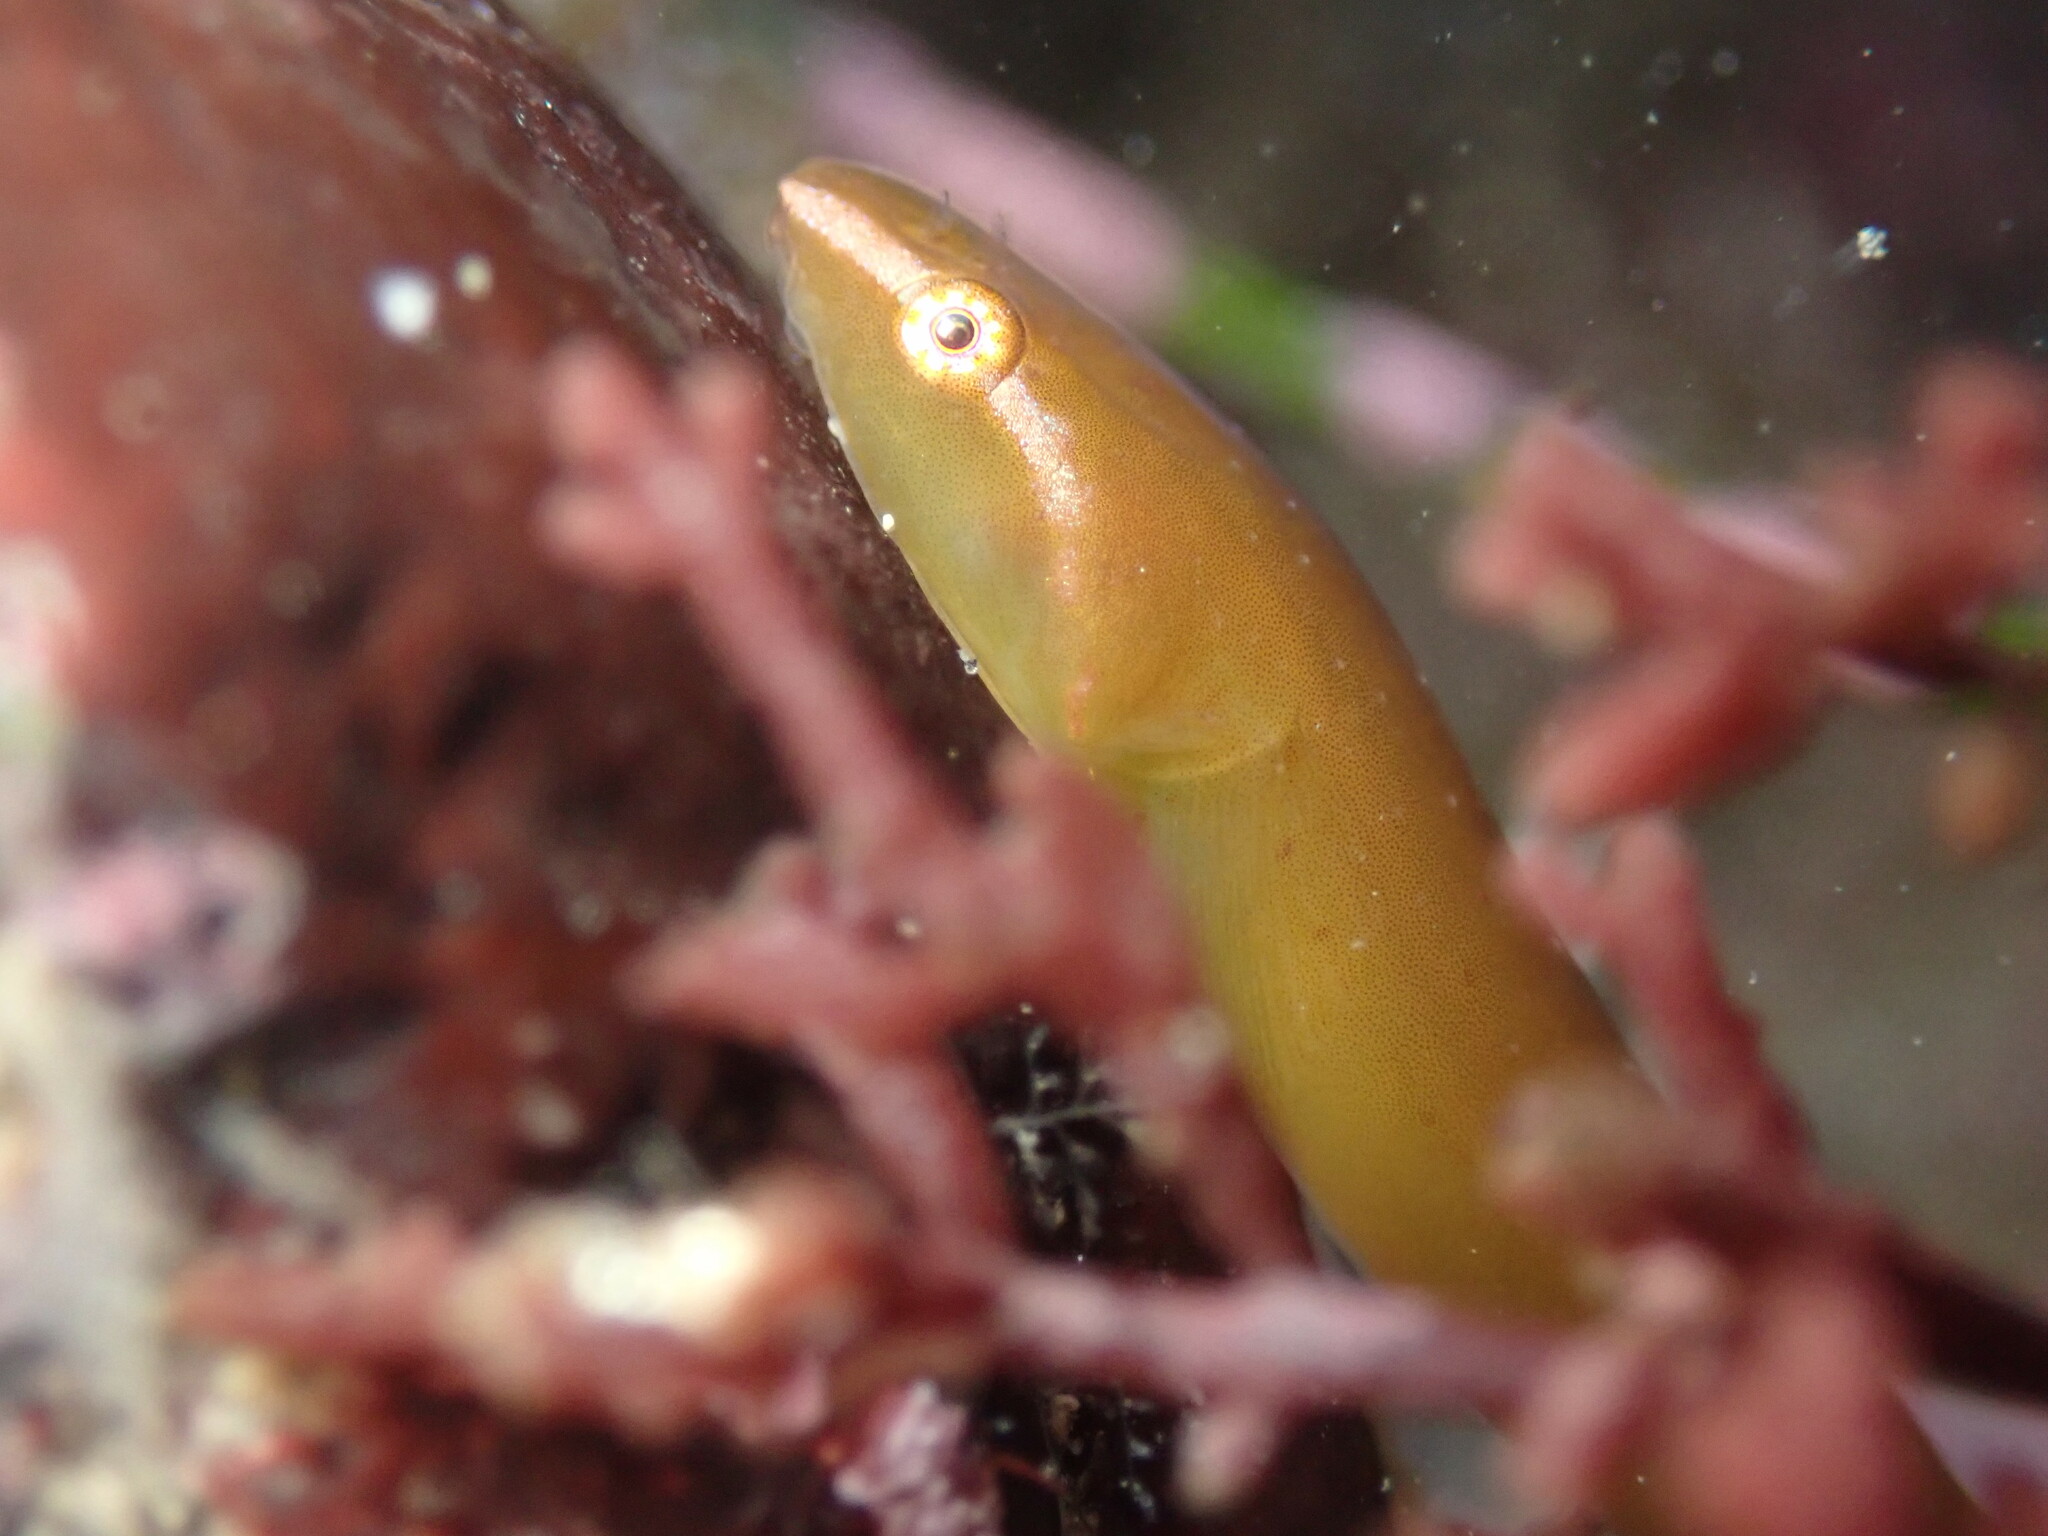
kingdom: Animalia
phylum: Chordata
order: Gobiesociformes
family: Gobiesocidae
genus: Rimicola
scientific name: Rimicola eigenmanni
